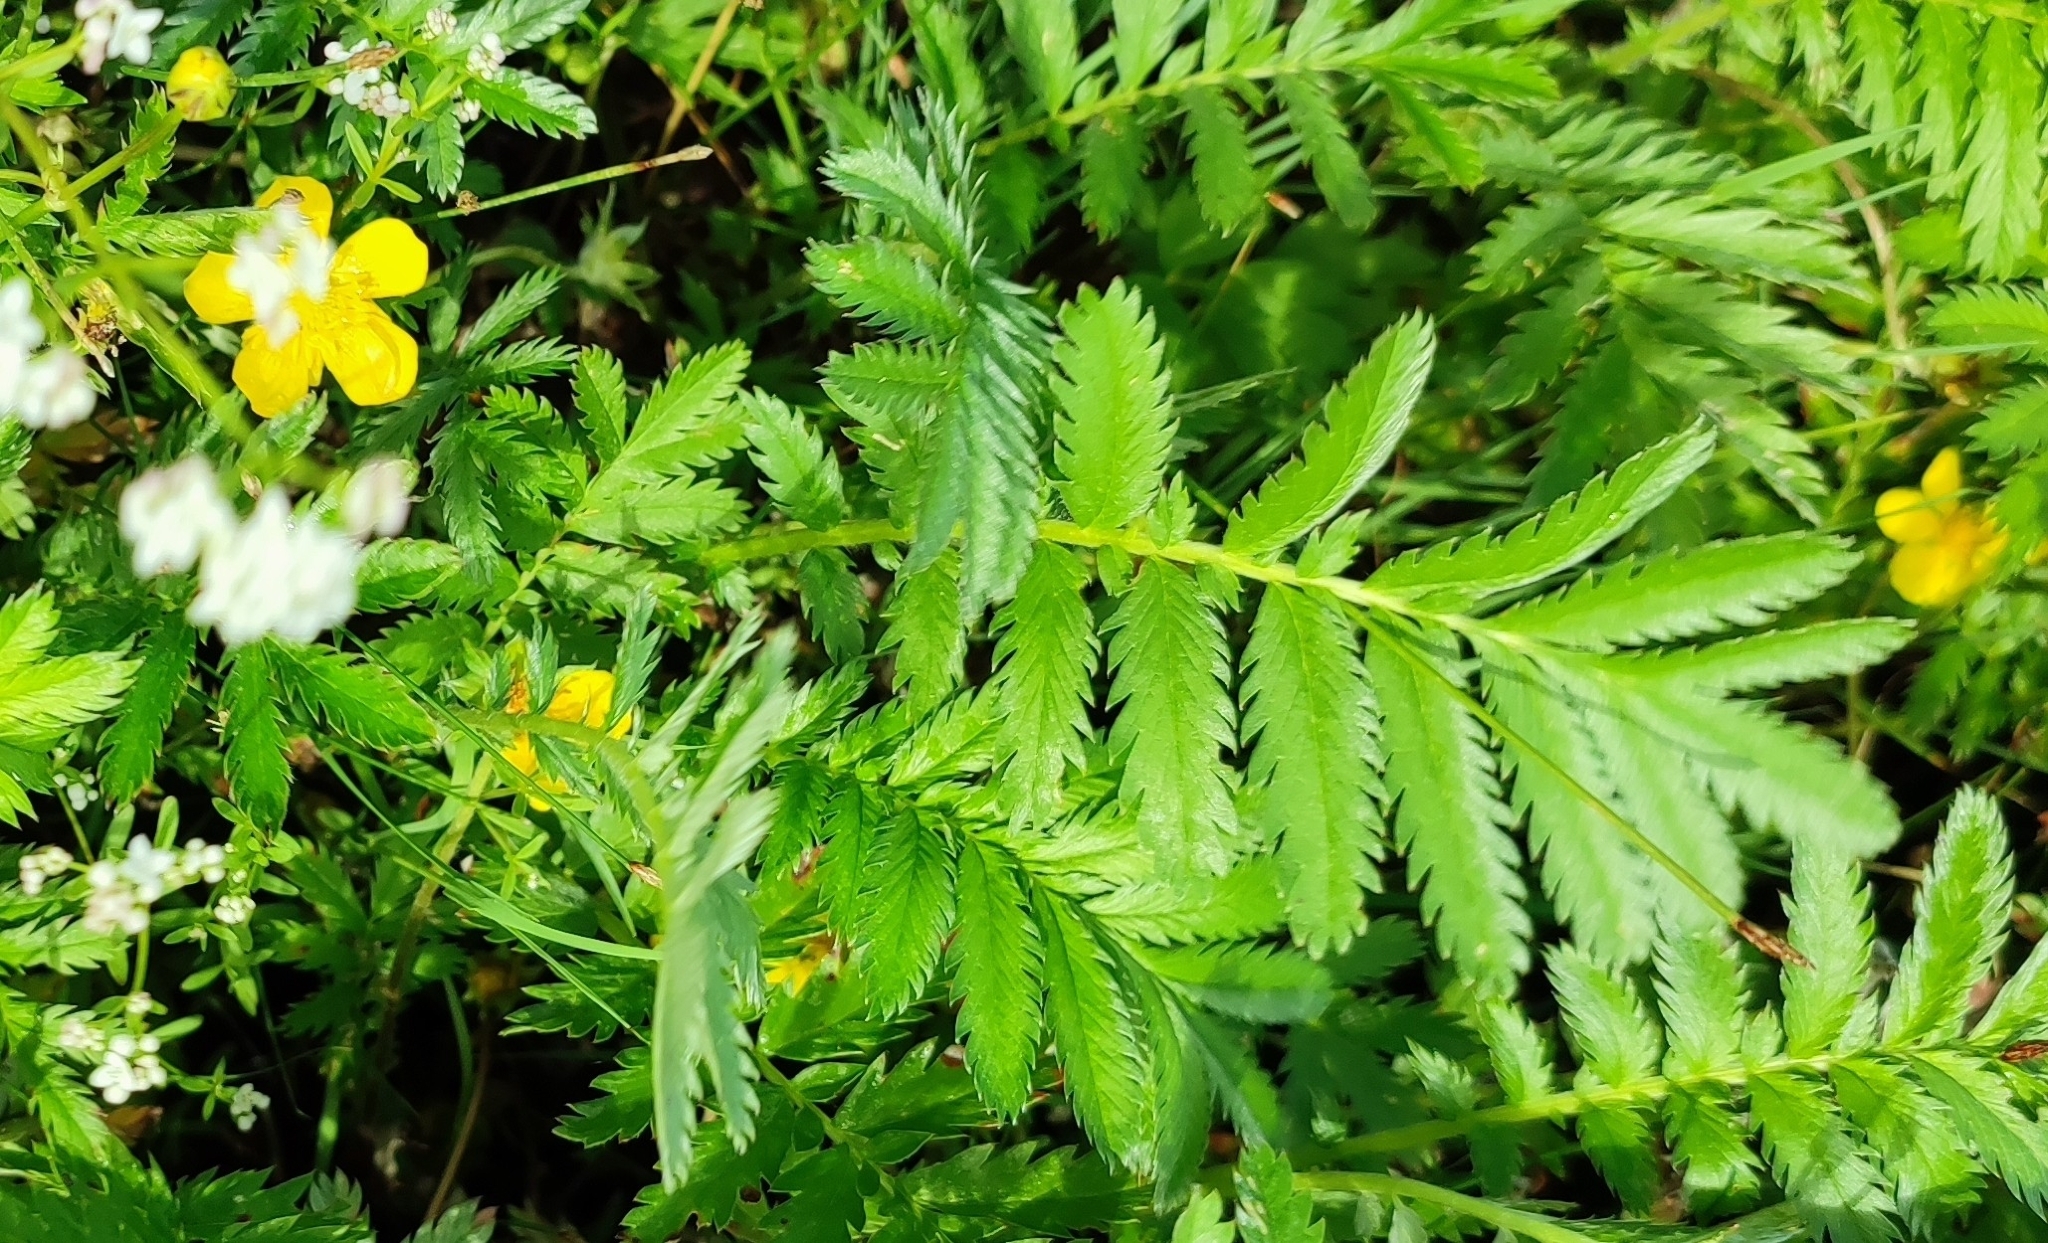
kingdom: Plantae
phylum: Tracheophyta
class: Magnoliopsida
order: Rosales
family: Rosaceae
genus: Argentina
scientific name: Argentina anserina
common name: Common silverweed
